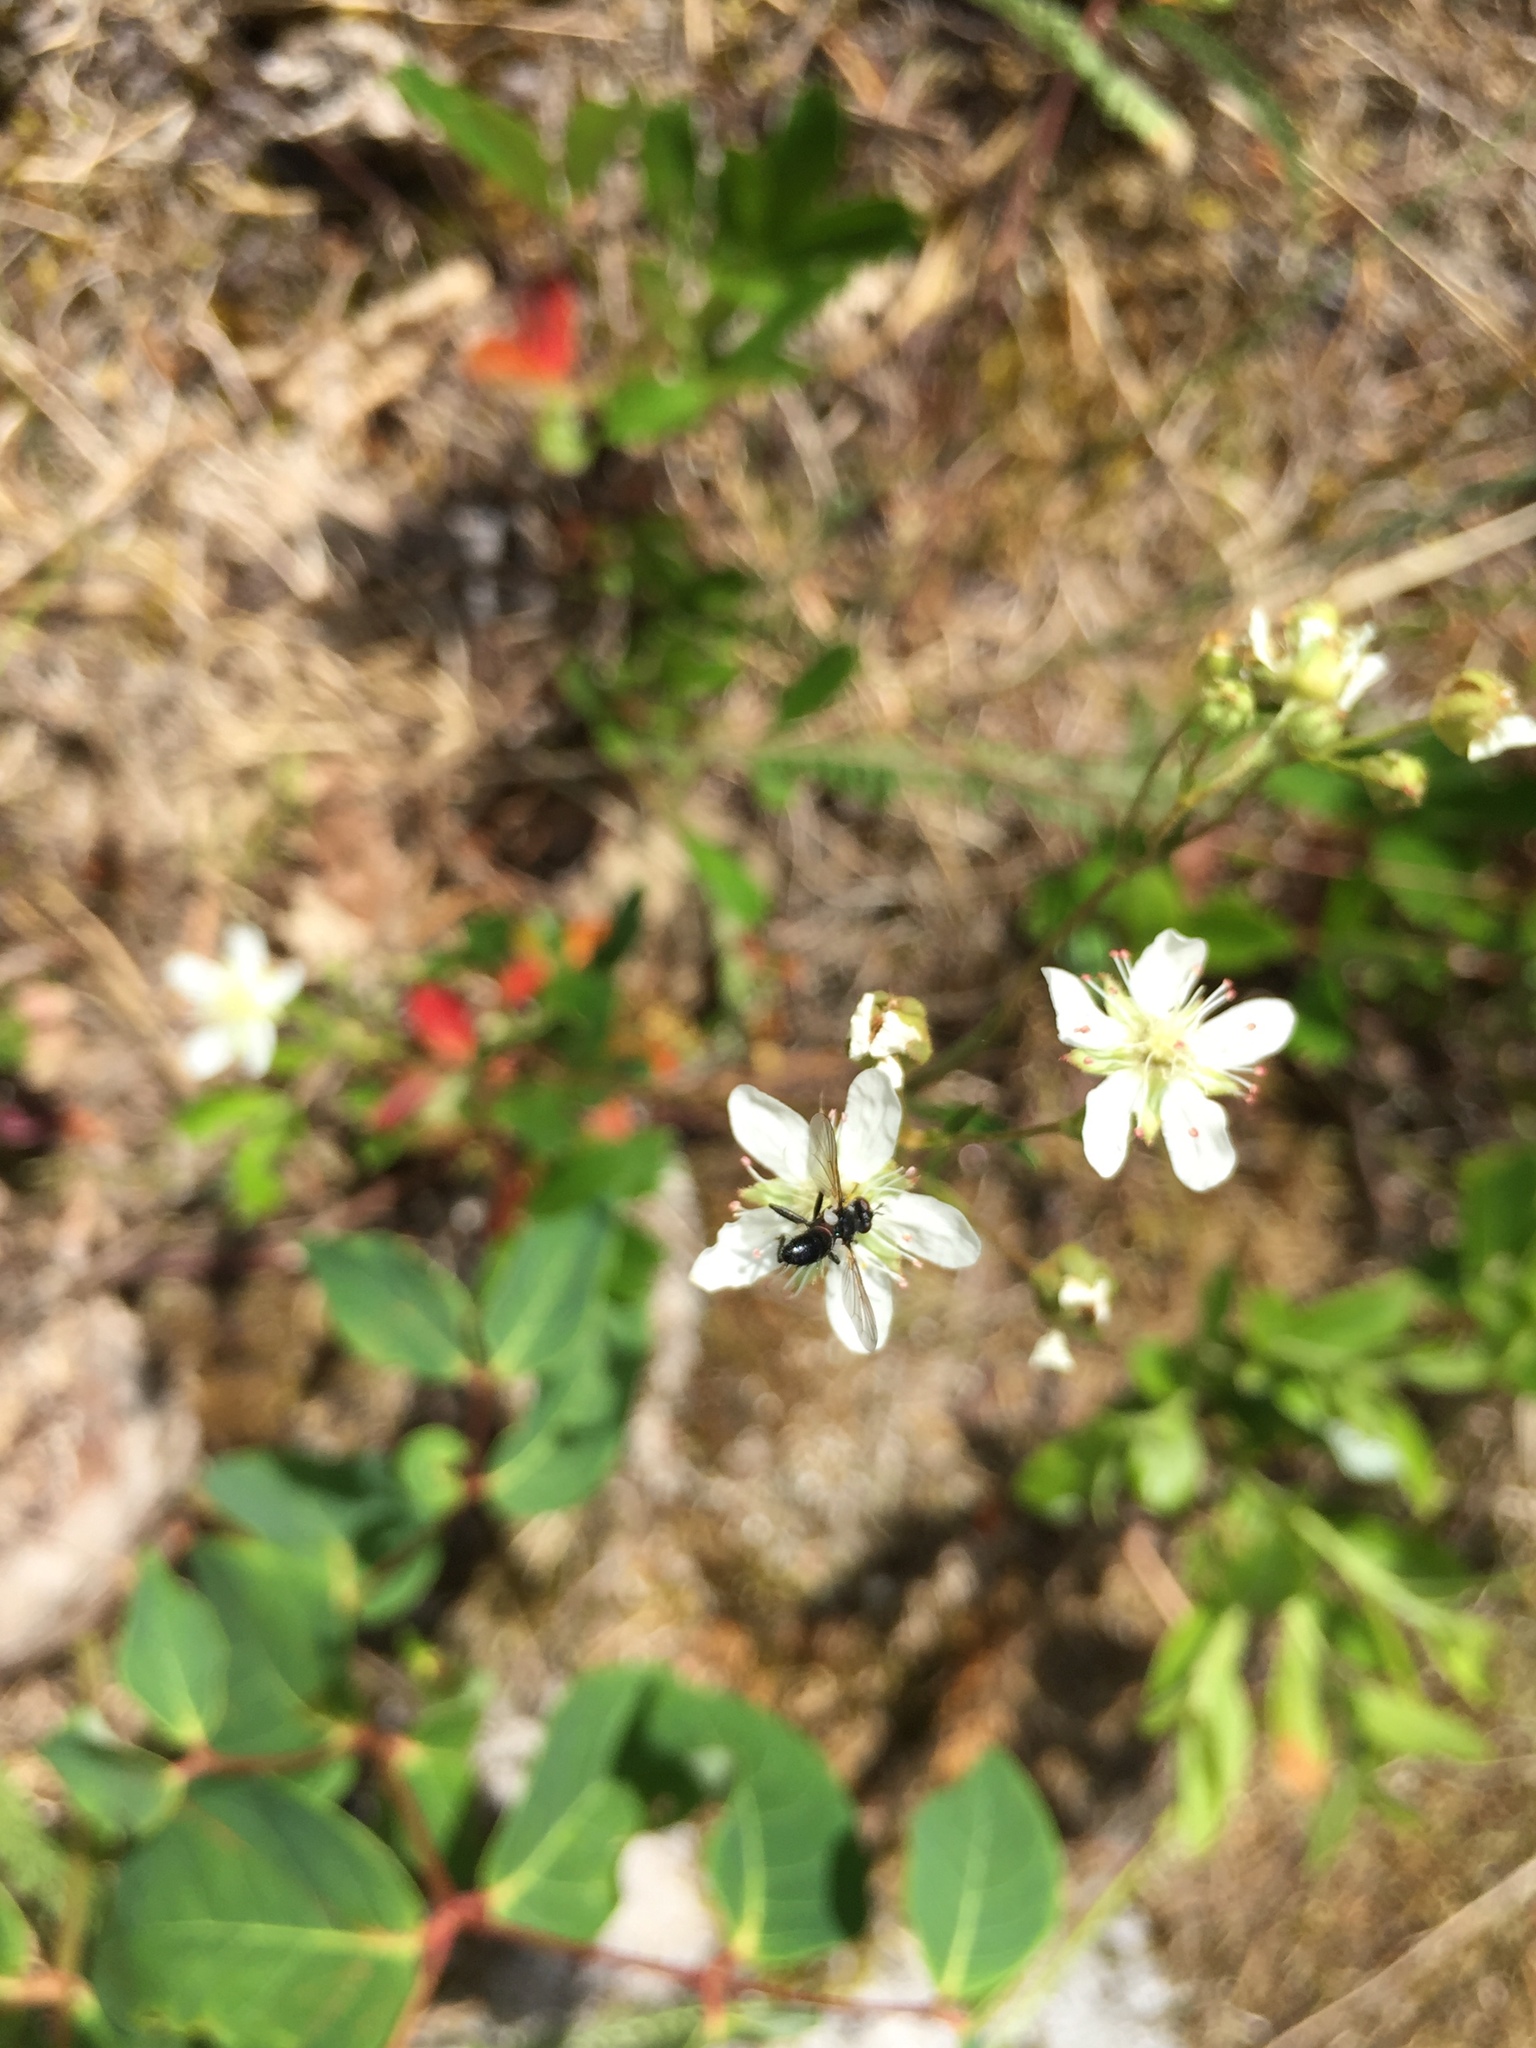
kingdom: Plantae
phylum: Tracheophyta
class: Magnoliopsida
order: Rosales
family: Rosaceae
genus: Sibbaldia
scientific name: Sibbaldia tridentata
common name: Three-toothed cinquefoil
